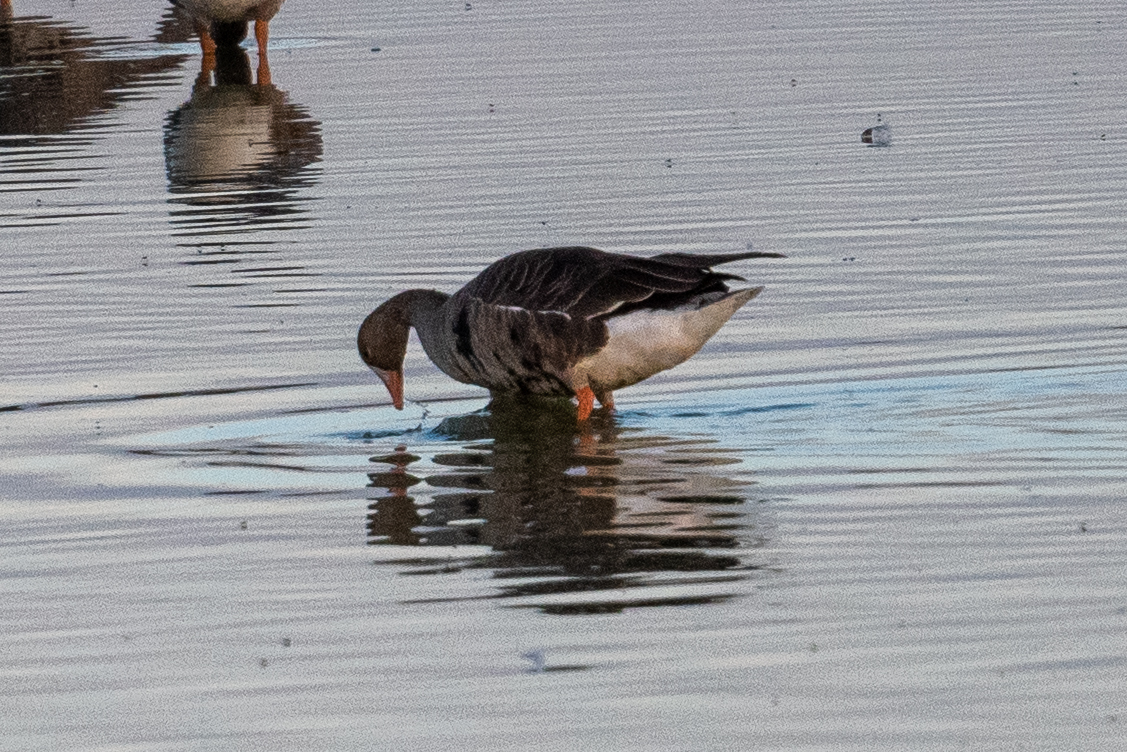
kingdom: Animalia
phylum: Chordata
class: Aves
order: Anseriformes
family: Anatidae
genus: Anser
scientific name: Anser albifrons
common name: Greater white-fronted goose
